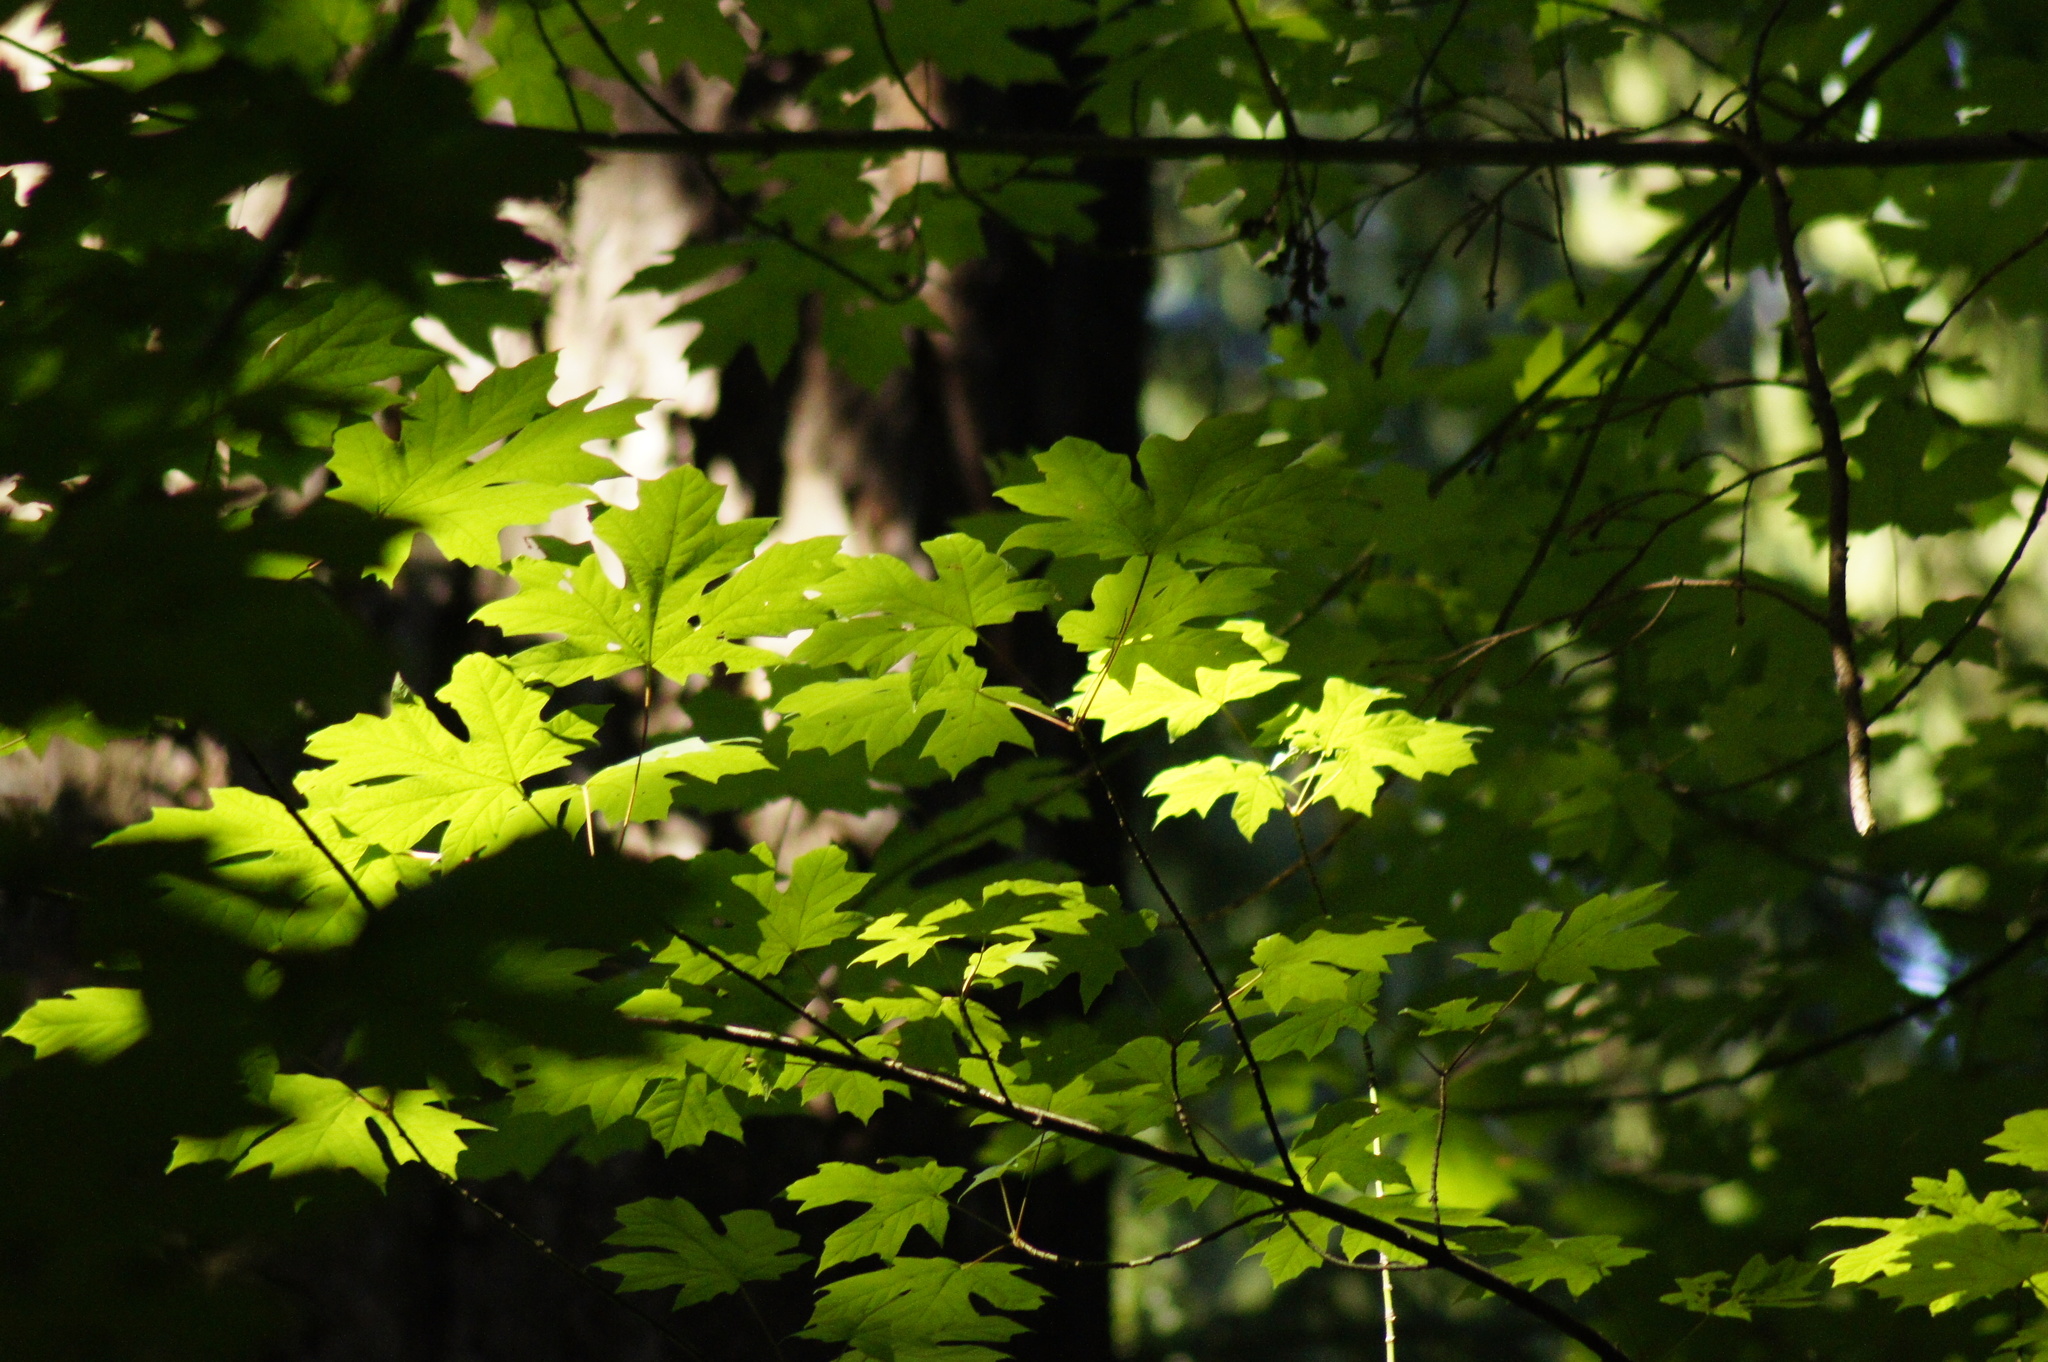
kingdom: Plantae
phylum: Tracheophyta
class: Magnoliopsida
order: Sapindales
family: Sapindaceae
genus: Acer
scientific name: Acer macrophyllum
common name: Oregon maple
